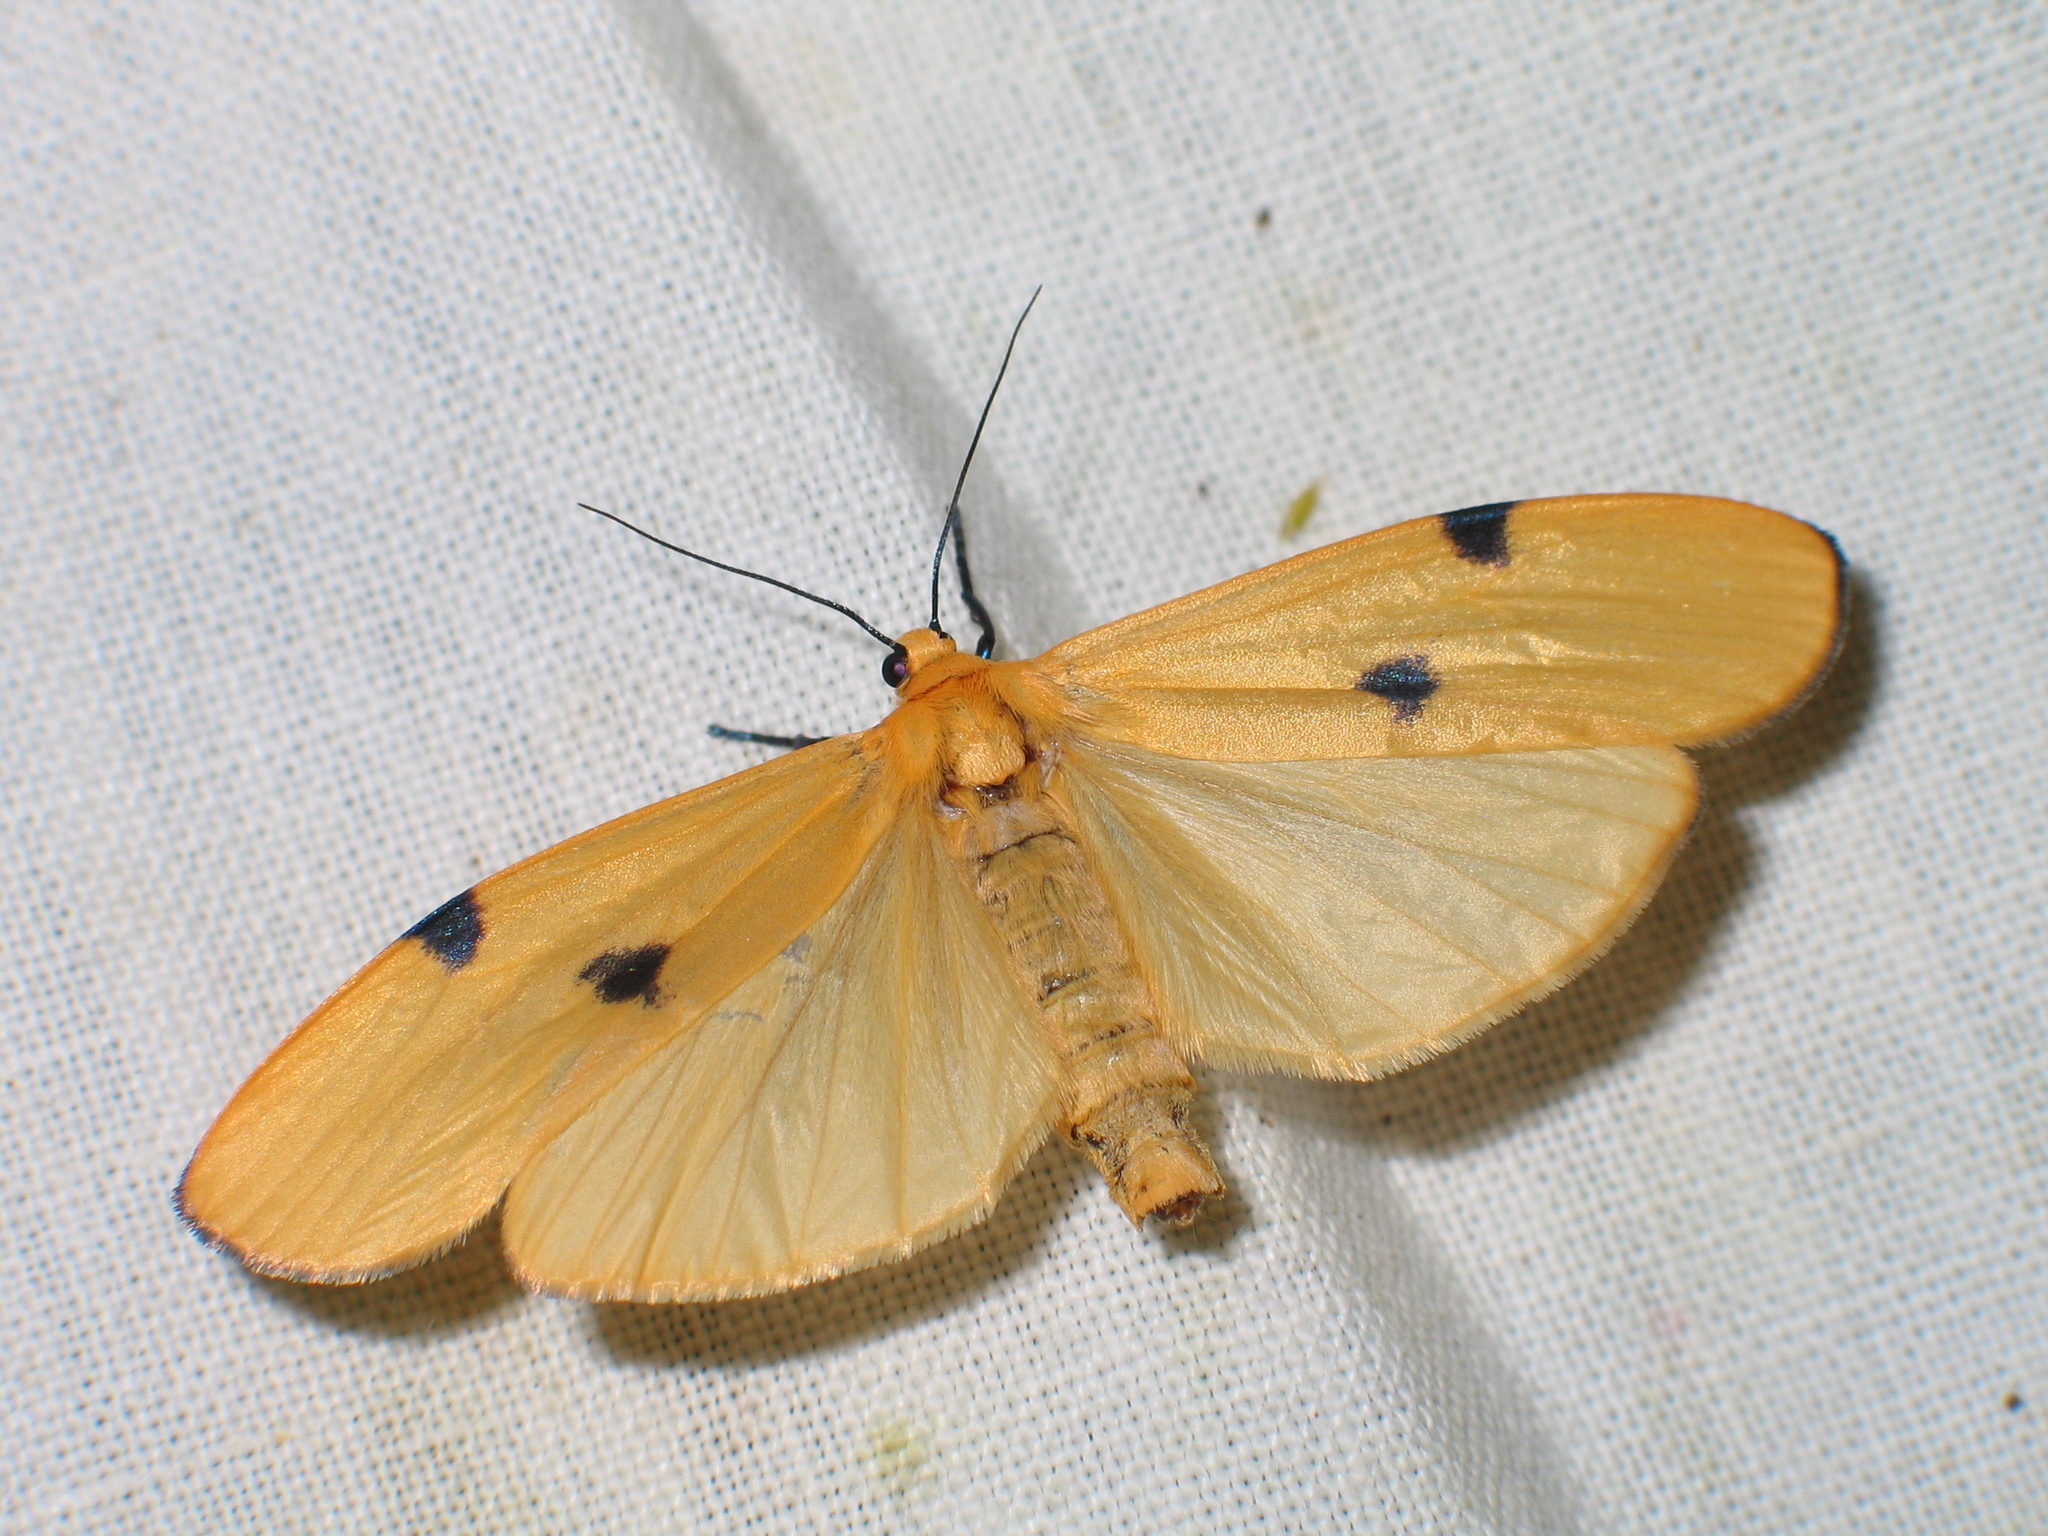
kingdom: Animalia
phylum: Arthropoda
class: Insecta
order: Lepidoptera
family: Erebidae
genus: Lithosia
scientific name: Lithosia quadra
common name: Four-spotted footman
